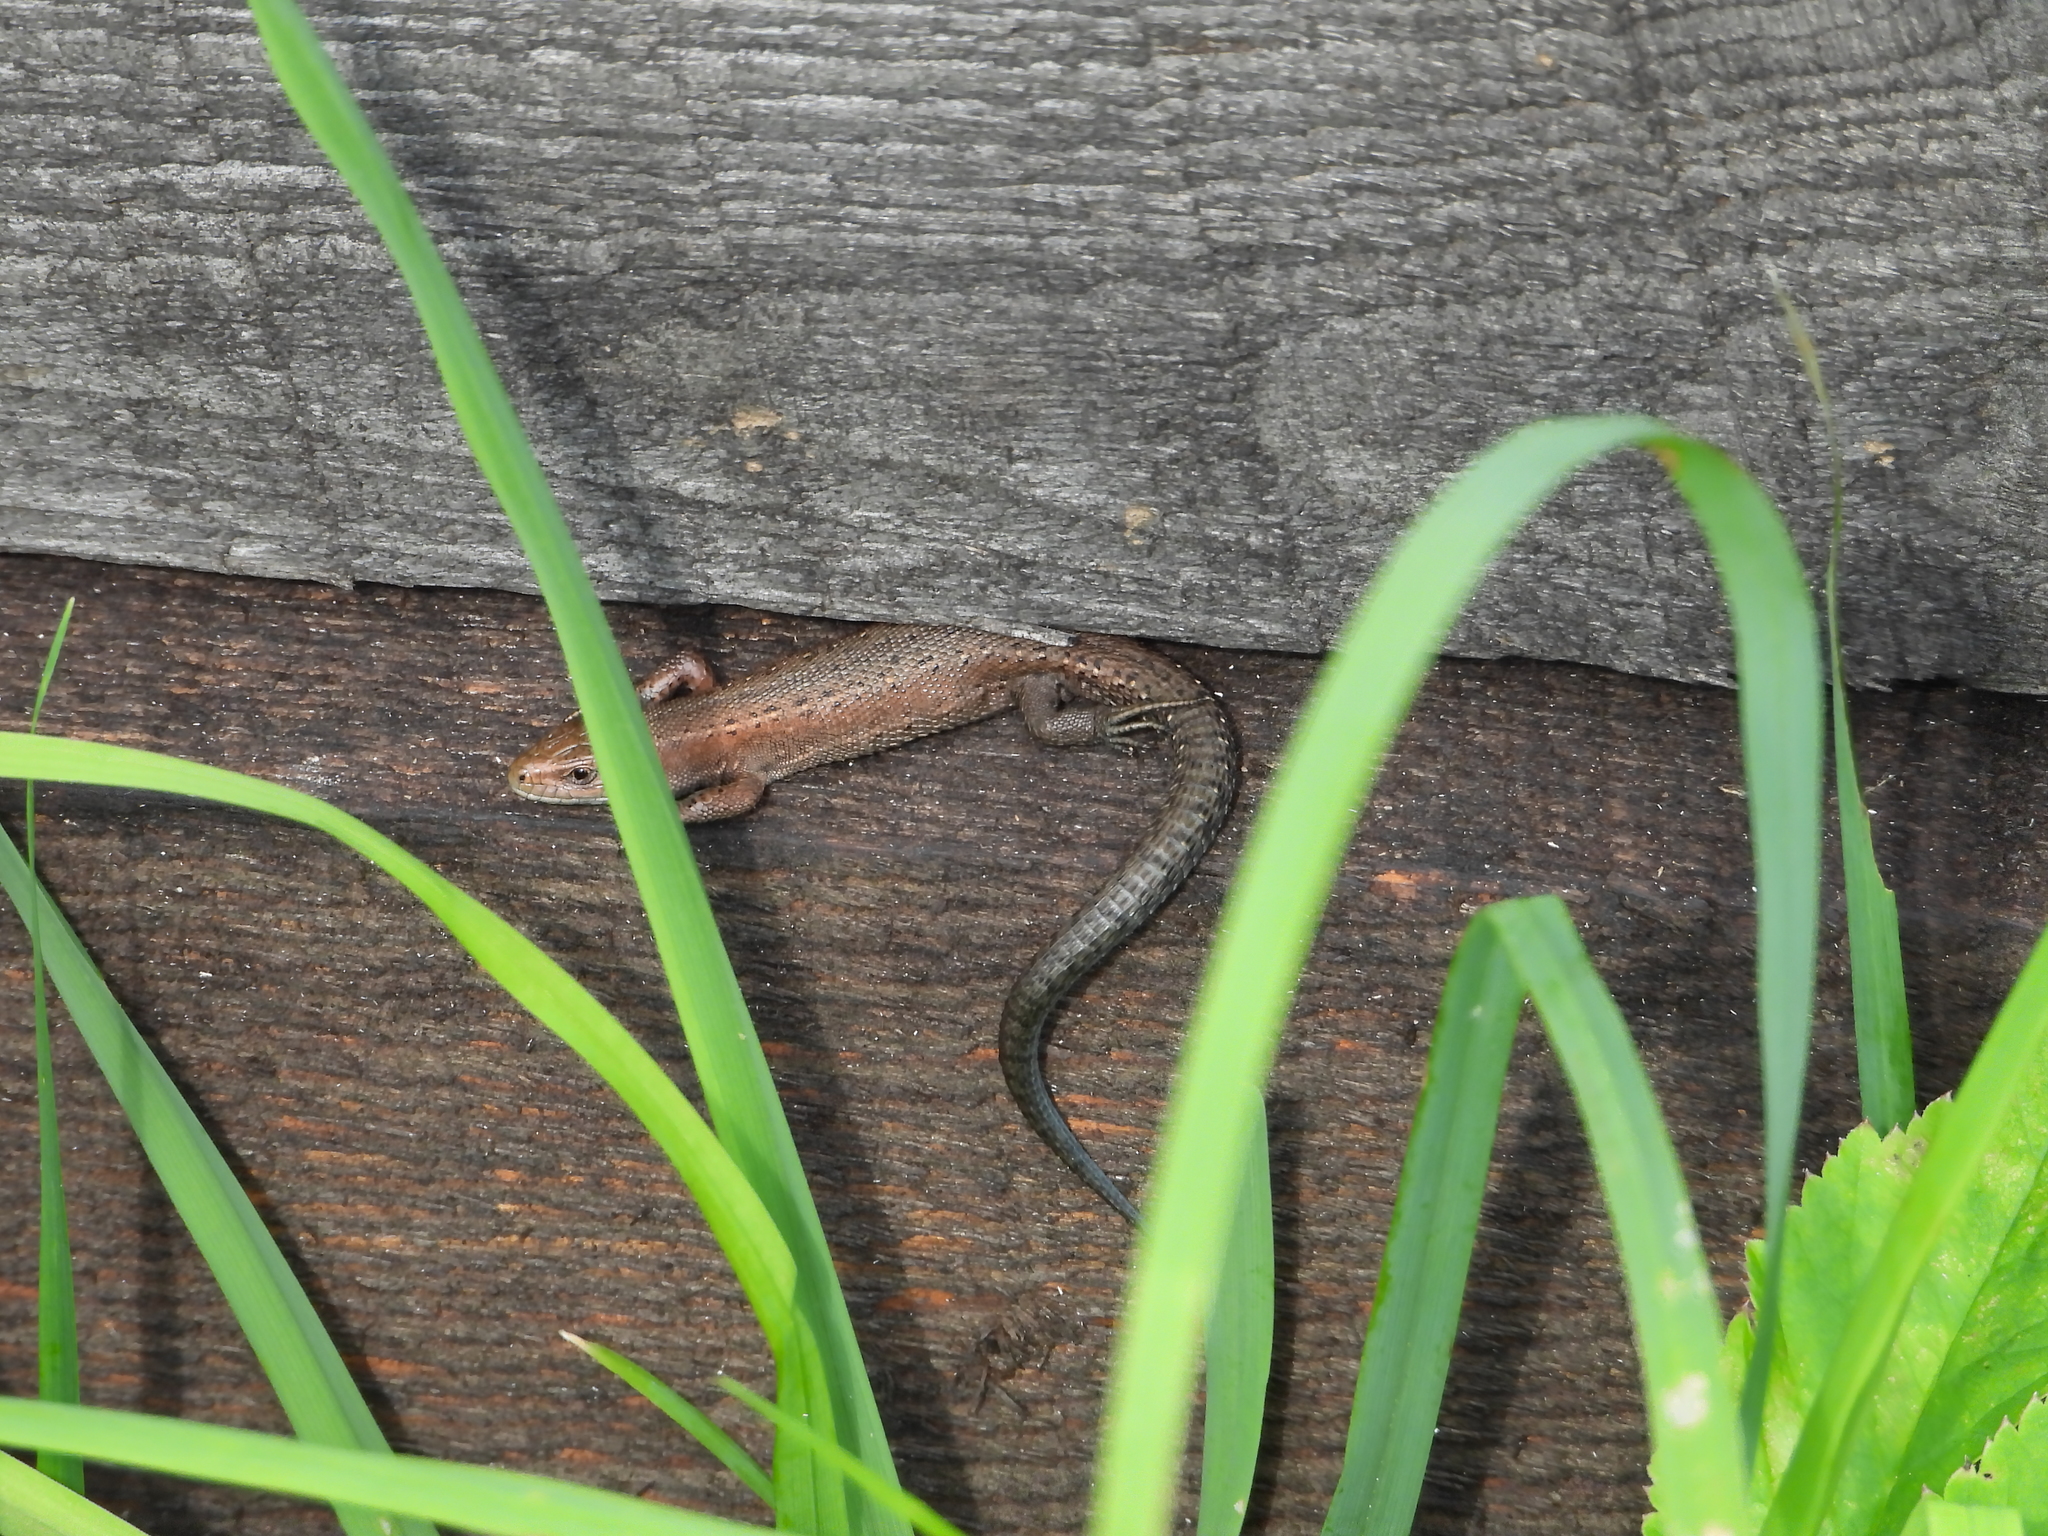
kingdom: Animalia
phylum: Chordata
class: Squamata
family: Lacertidae
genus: Zootoca
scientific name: Zootoca vivipara
